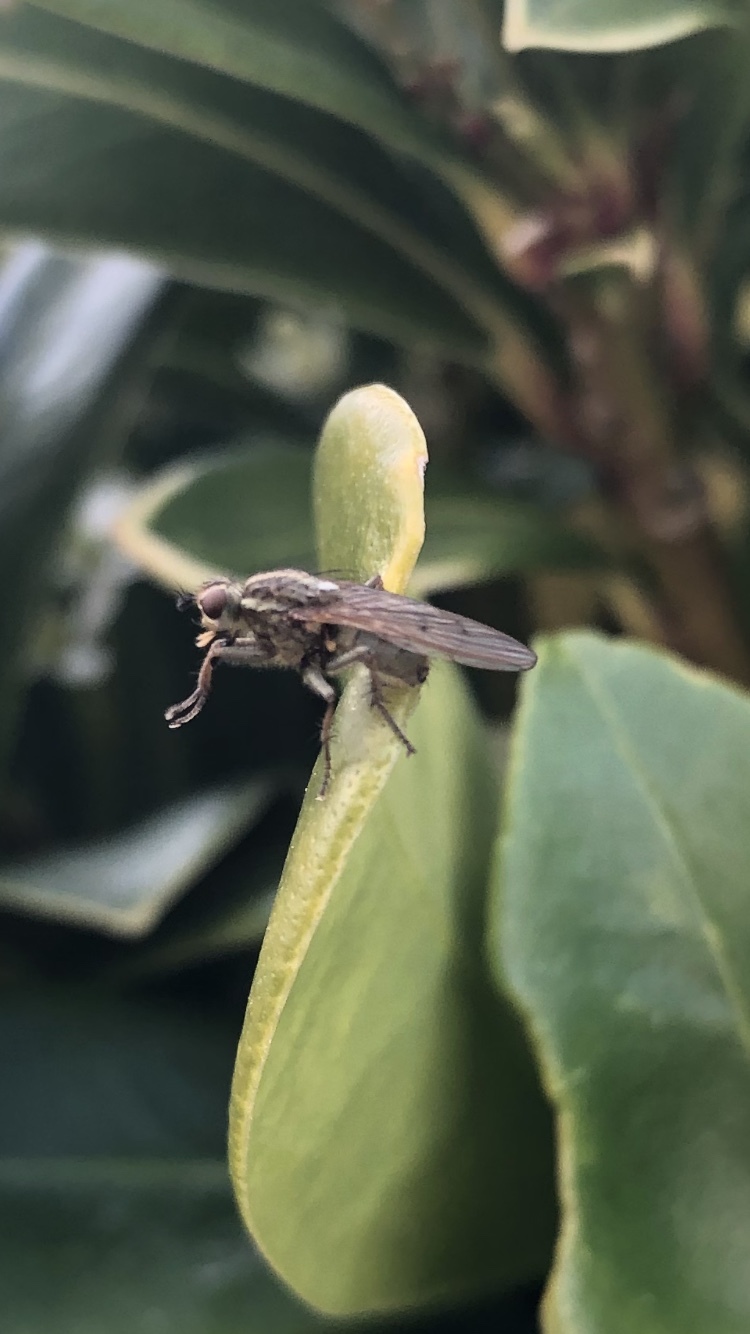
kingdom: Animalia
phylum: Arthropoda
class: Insecta
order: Diptera
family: Scathophagidae
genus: Scathophaga
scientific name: Scathophaga stercoraria
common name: Yellow dung fly
